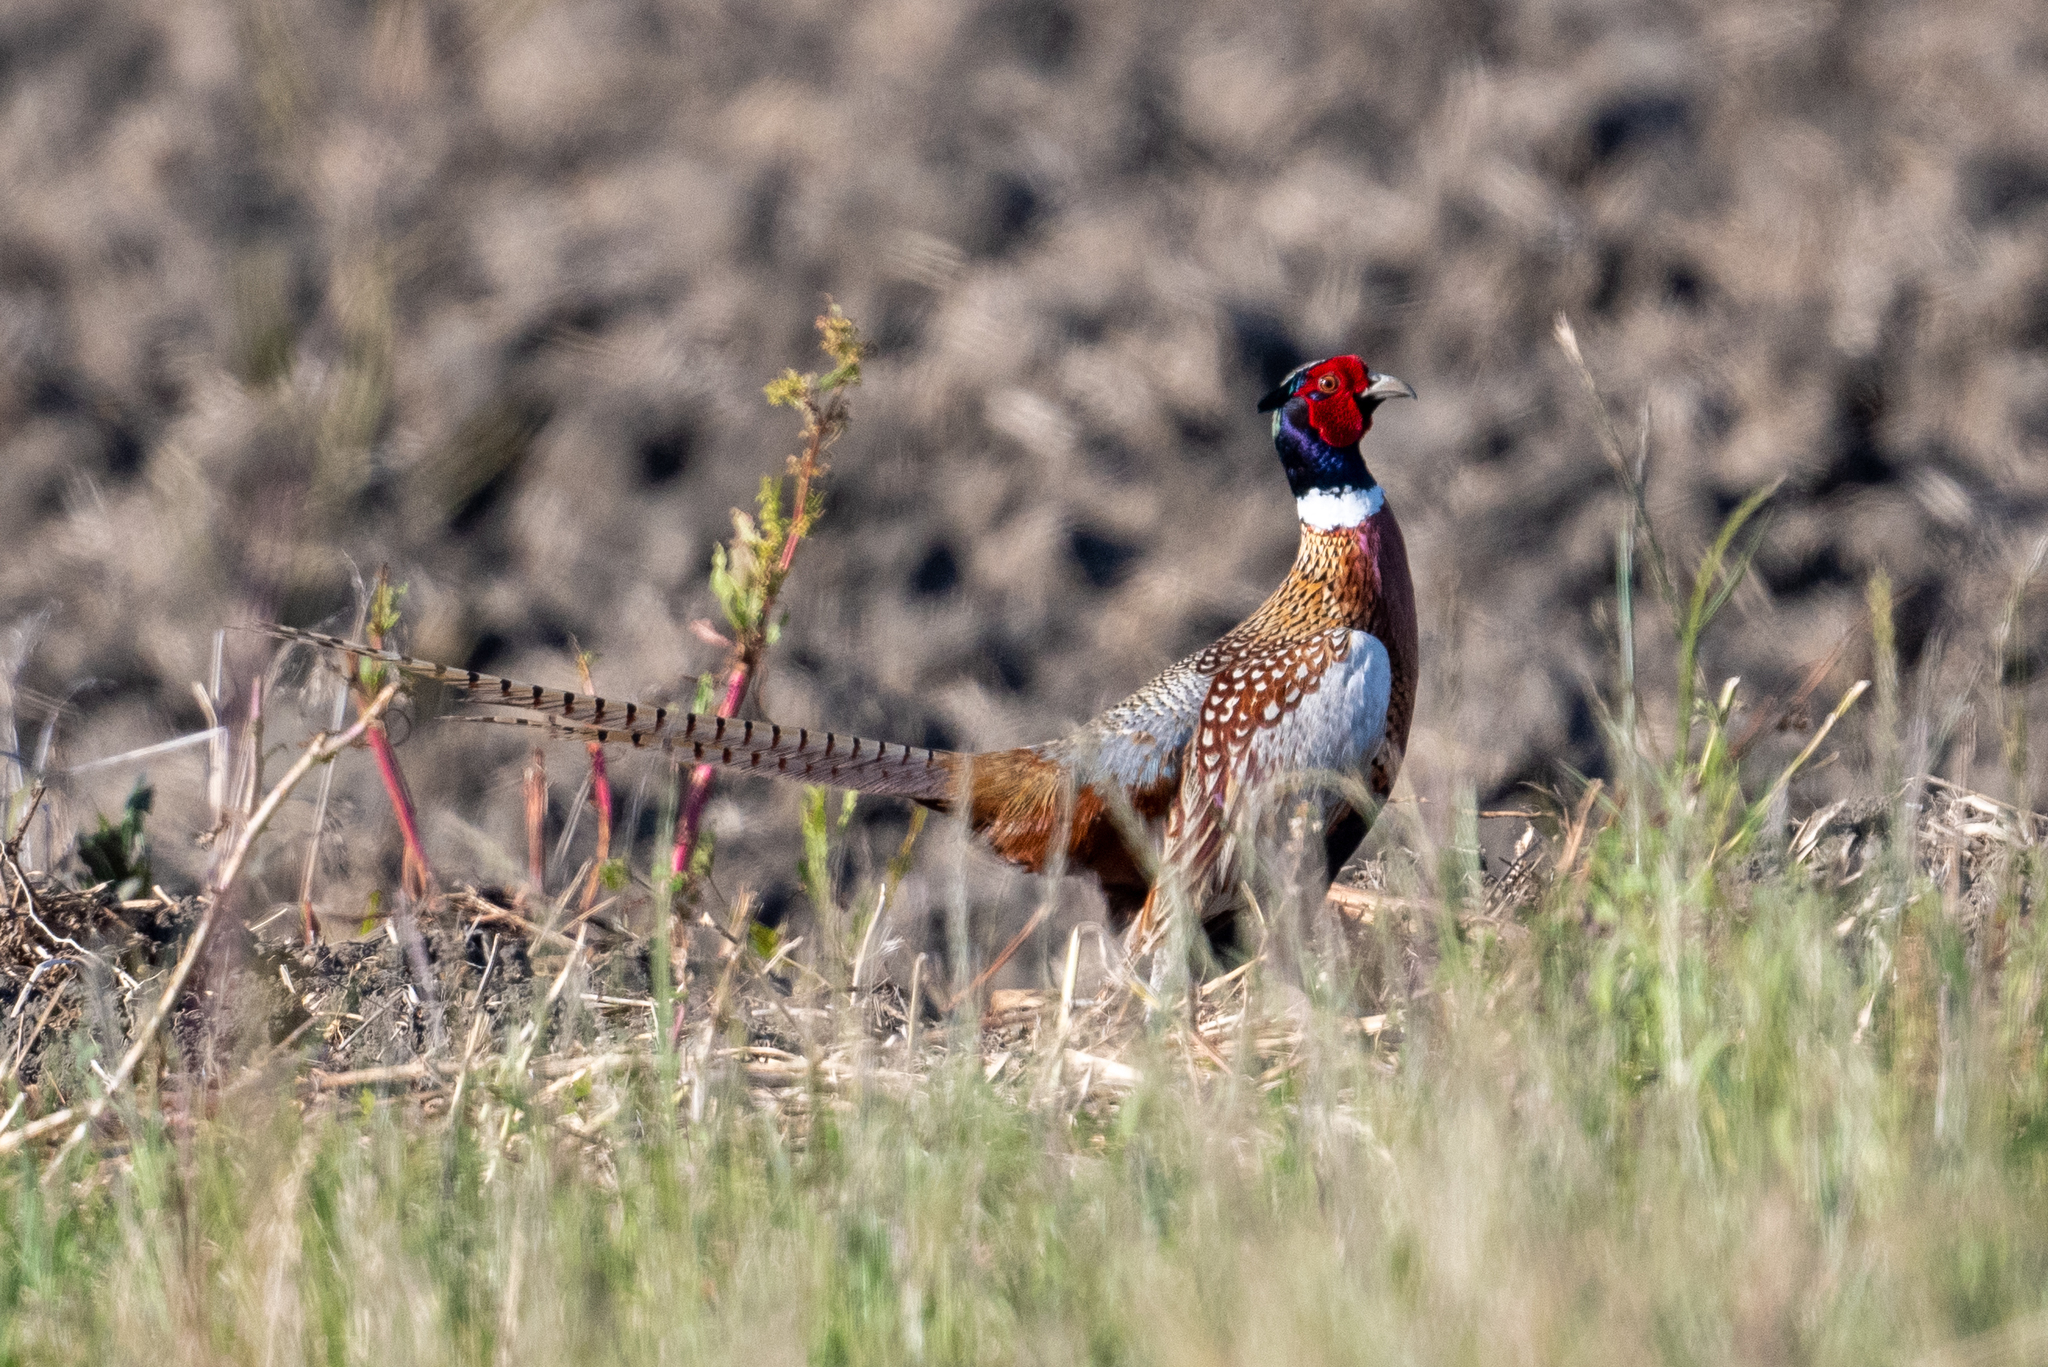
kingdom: Animalia
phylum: Chordata
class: Aves
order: Galliformes
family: Phasianidae
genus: Phasianus
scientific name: Phasianus colchicus
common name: Common pheasant
